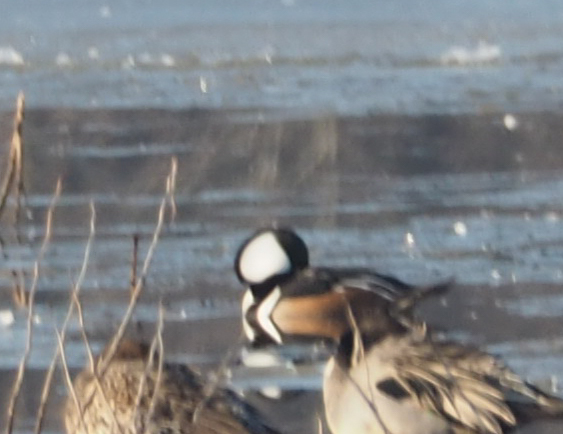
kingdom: Animalia
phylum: Chordata
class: Aves
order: Anseriformes
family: Anatidae
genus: Lophodytes
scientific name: Lophodytes cucullatus
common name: Hooded merganser
